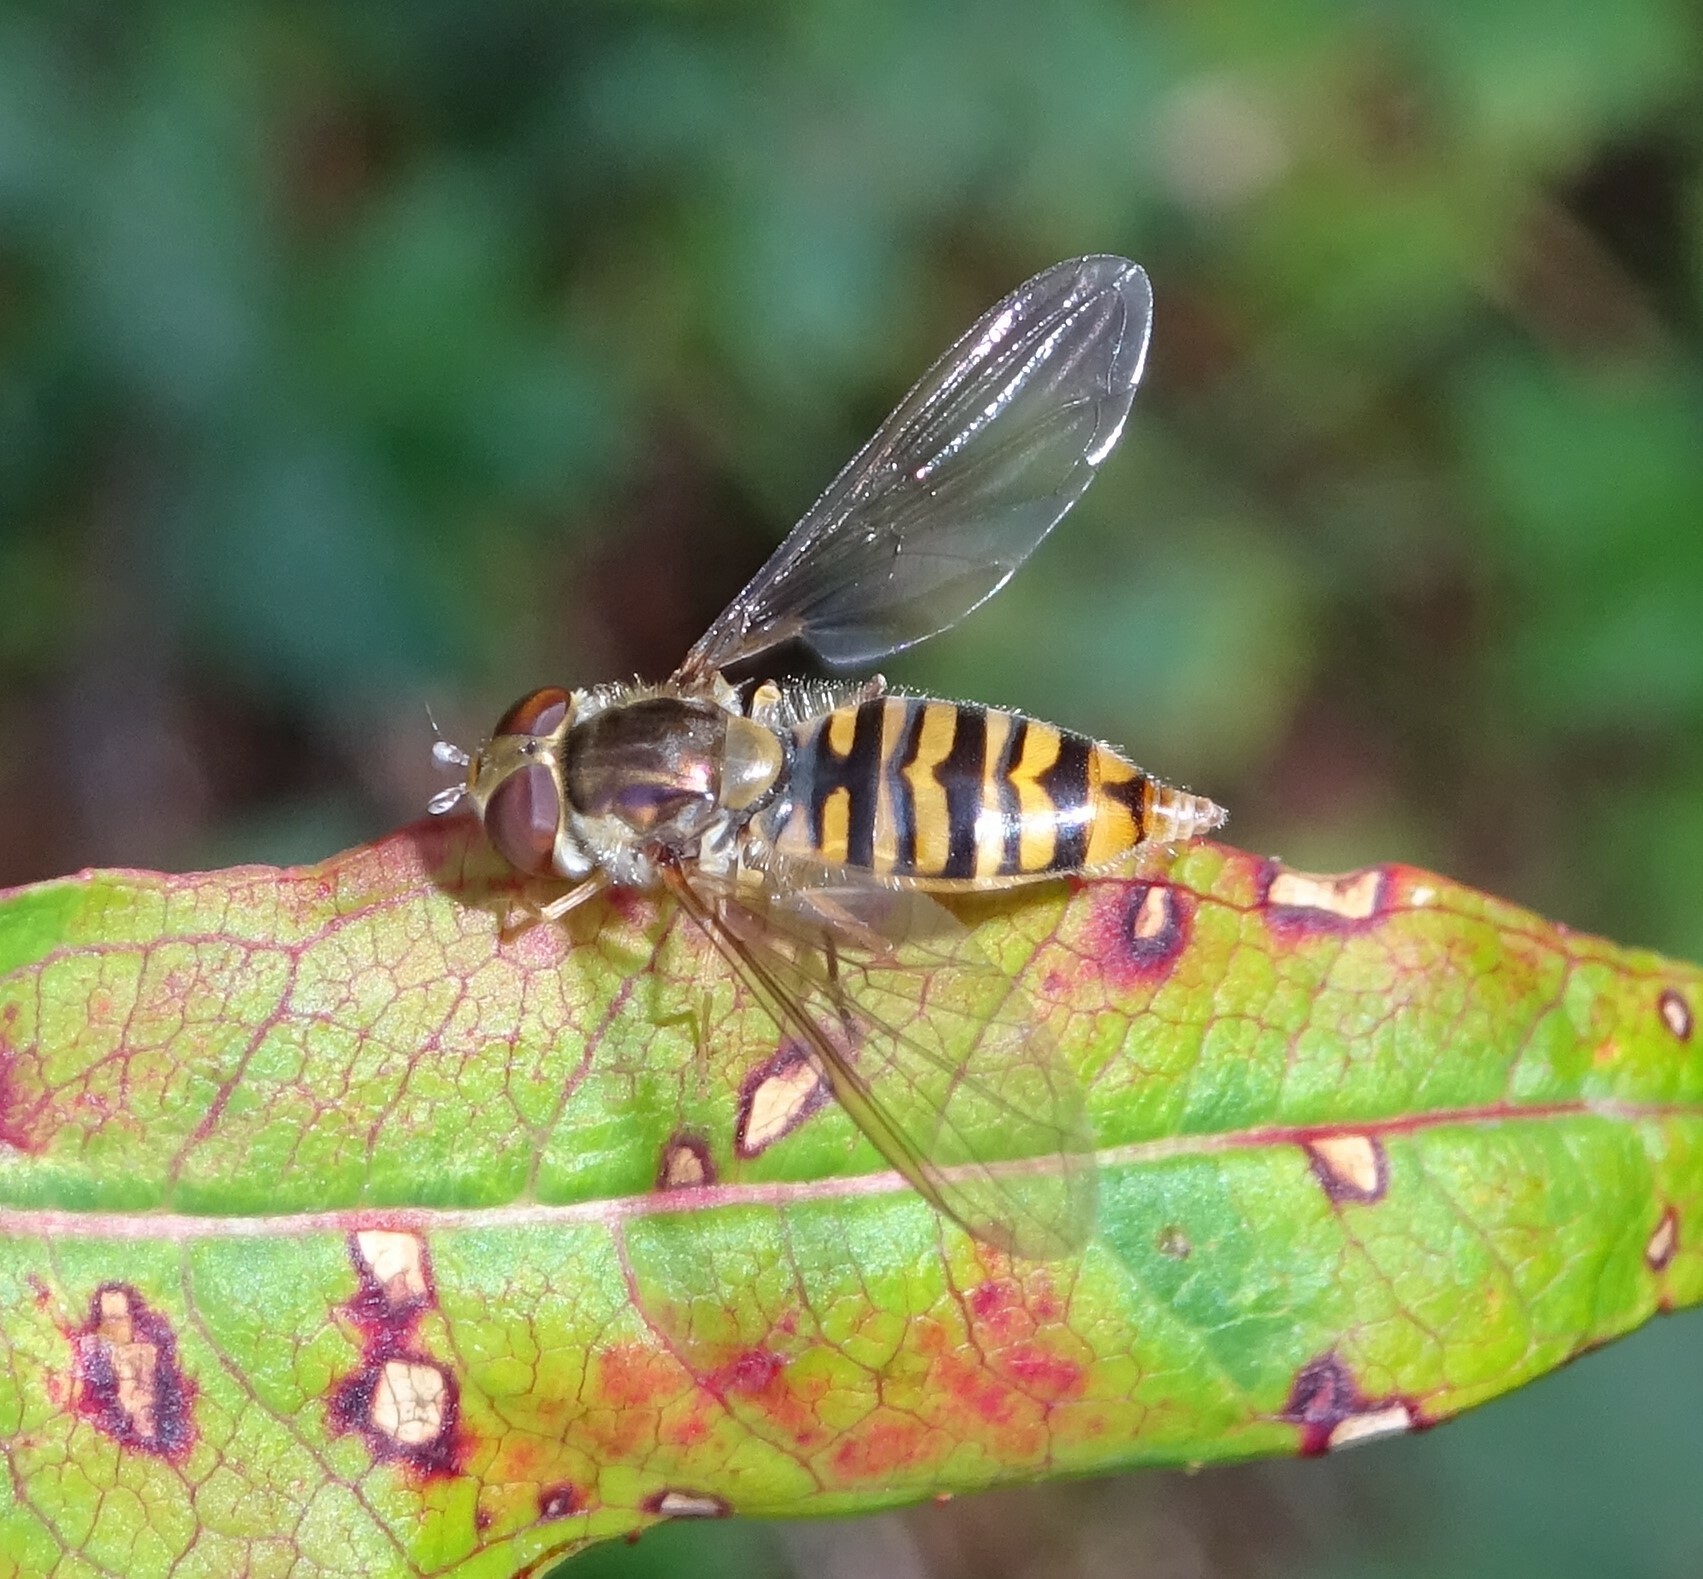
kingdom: Animalia
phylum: Arthropoda
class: Insecta
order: Diptera
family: Syrphidae
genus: Episyrphus
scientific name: Episyrphus balteatus
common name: Marmalade hoverfly
